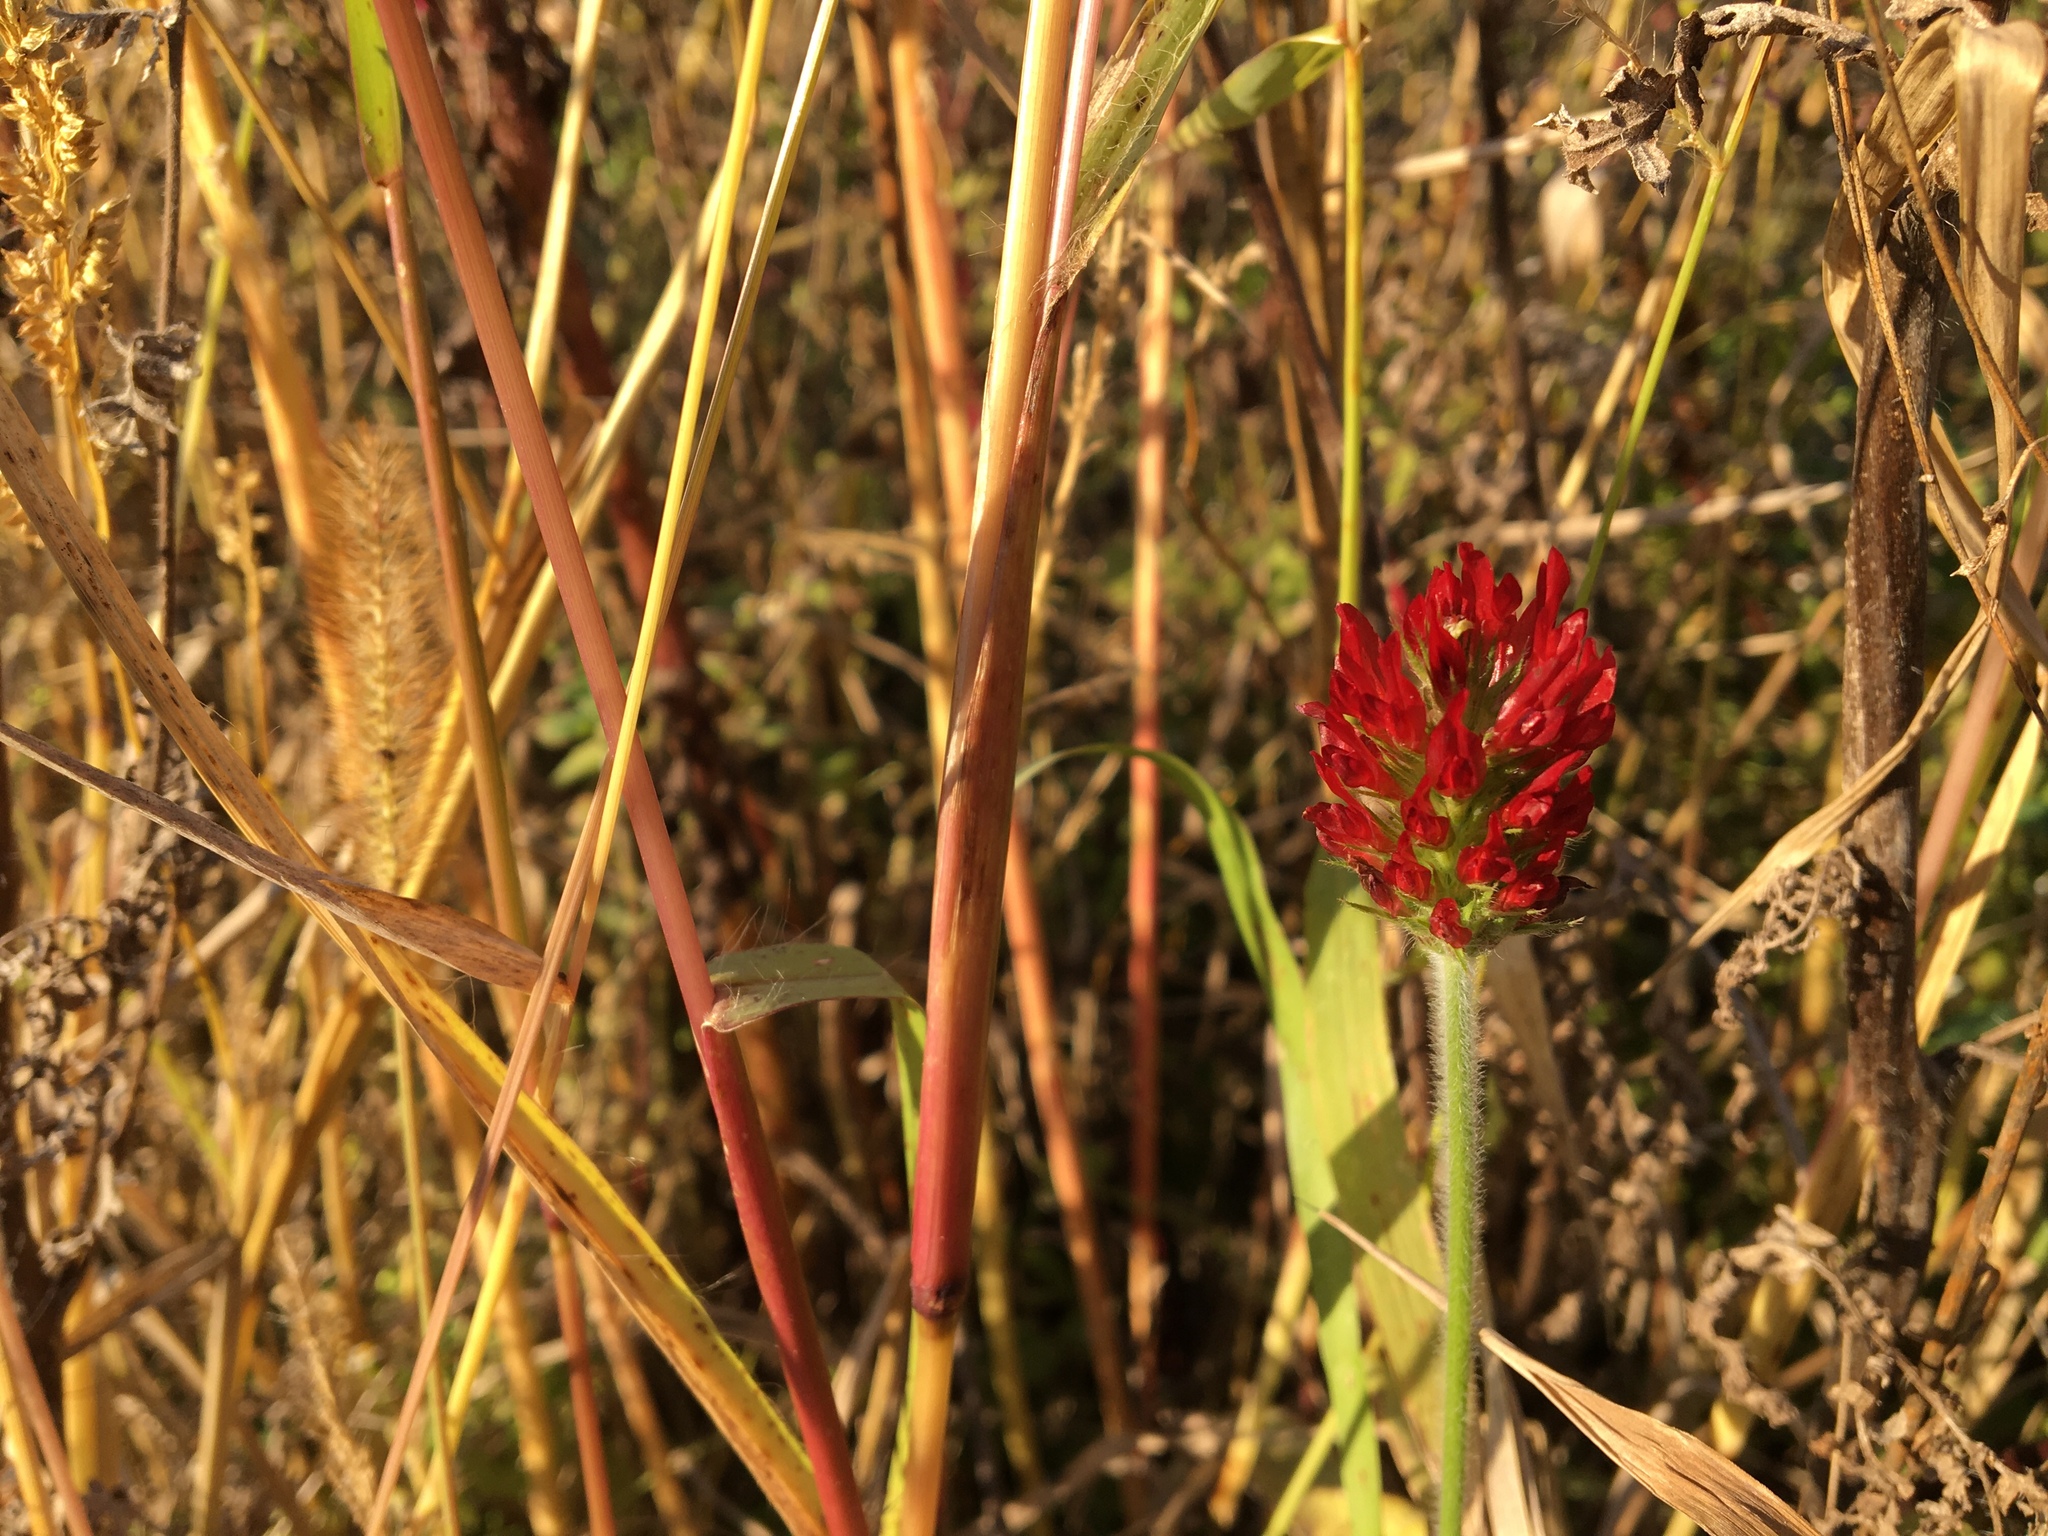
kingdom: Plantae
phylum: Tracheophyta
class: Magnoliopsida
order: Fabales
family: Fabaceae
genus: Trifolium
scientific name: Trifolium incarnatum
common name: Crimson clover
